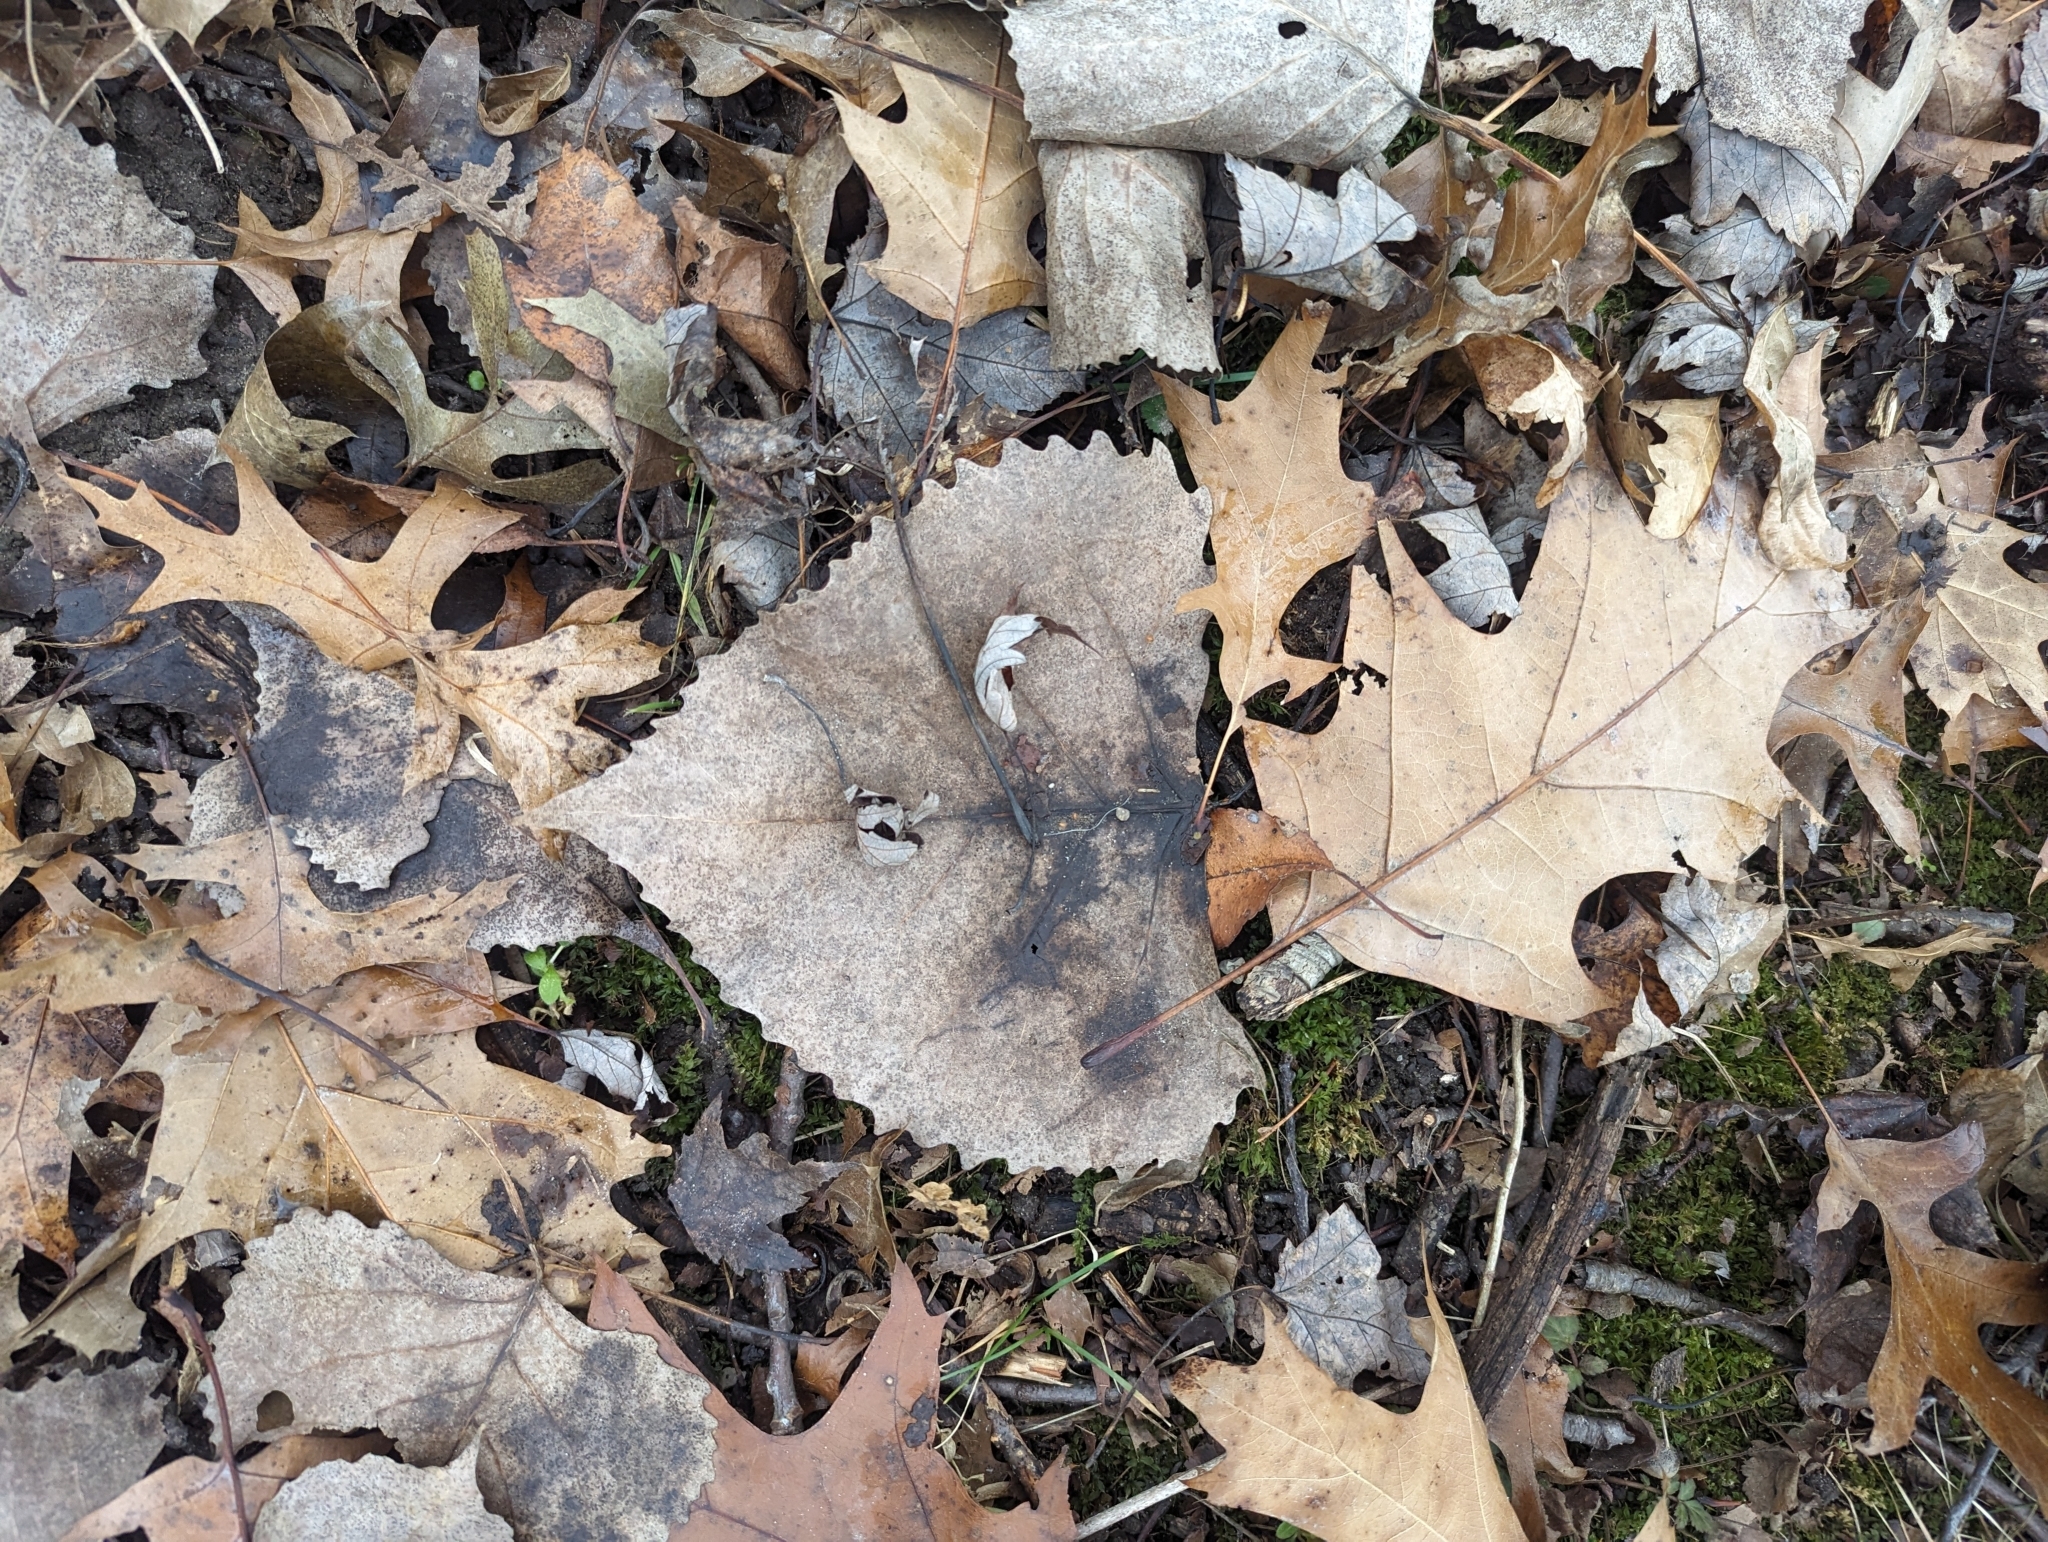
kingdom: Plantae
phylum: Tracheophyta
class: Magnoliopsida
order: Malpighiales
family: Salicaceae
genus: Populus
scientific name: Populus deltoides
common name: Eastern cottonwood
